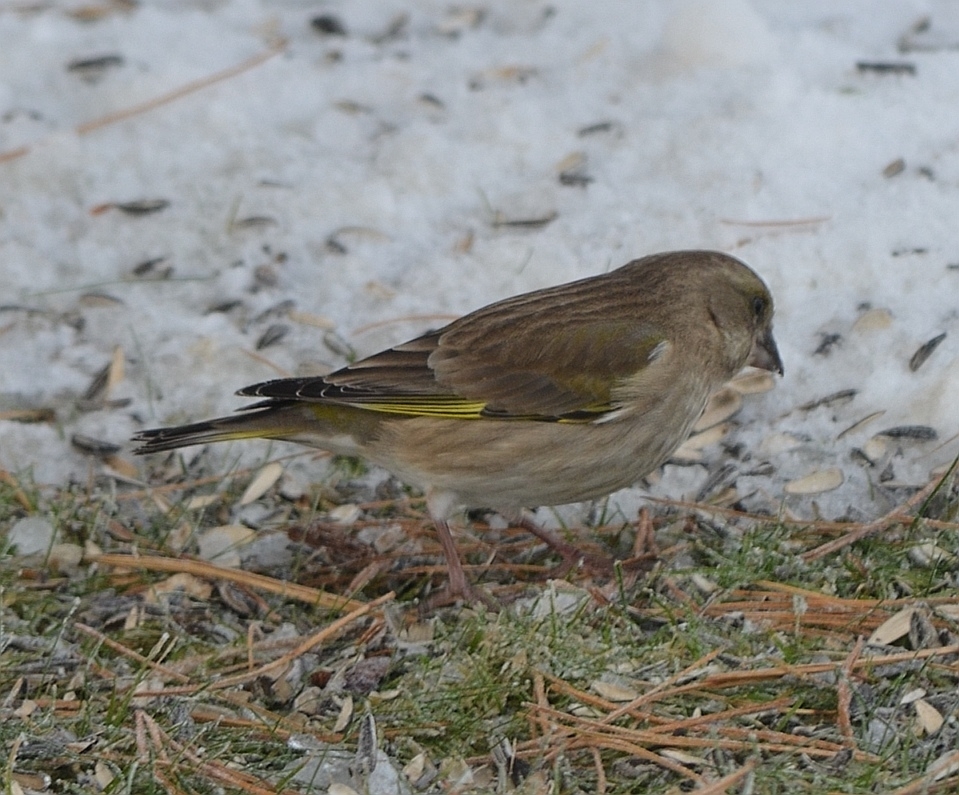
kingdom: Plantae
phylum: Tracheophyta
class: Liliopsida
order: Poales
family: Poaceae
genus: Chloris
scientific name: Chloris chloris
